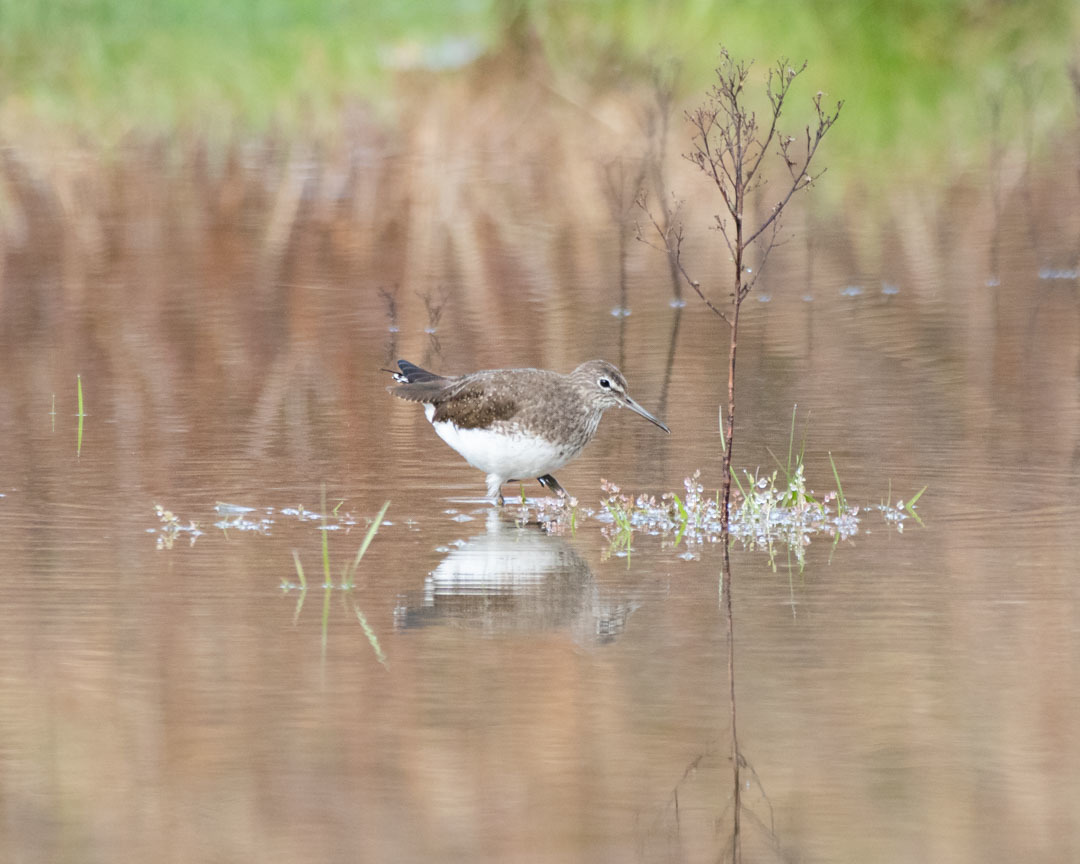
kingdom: Animalia
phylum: Chordata
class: Aves
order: Charadriiformes
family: Scolopacidae
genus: Tringa
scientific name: Tringa ochropus
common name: Green sandpiper
